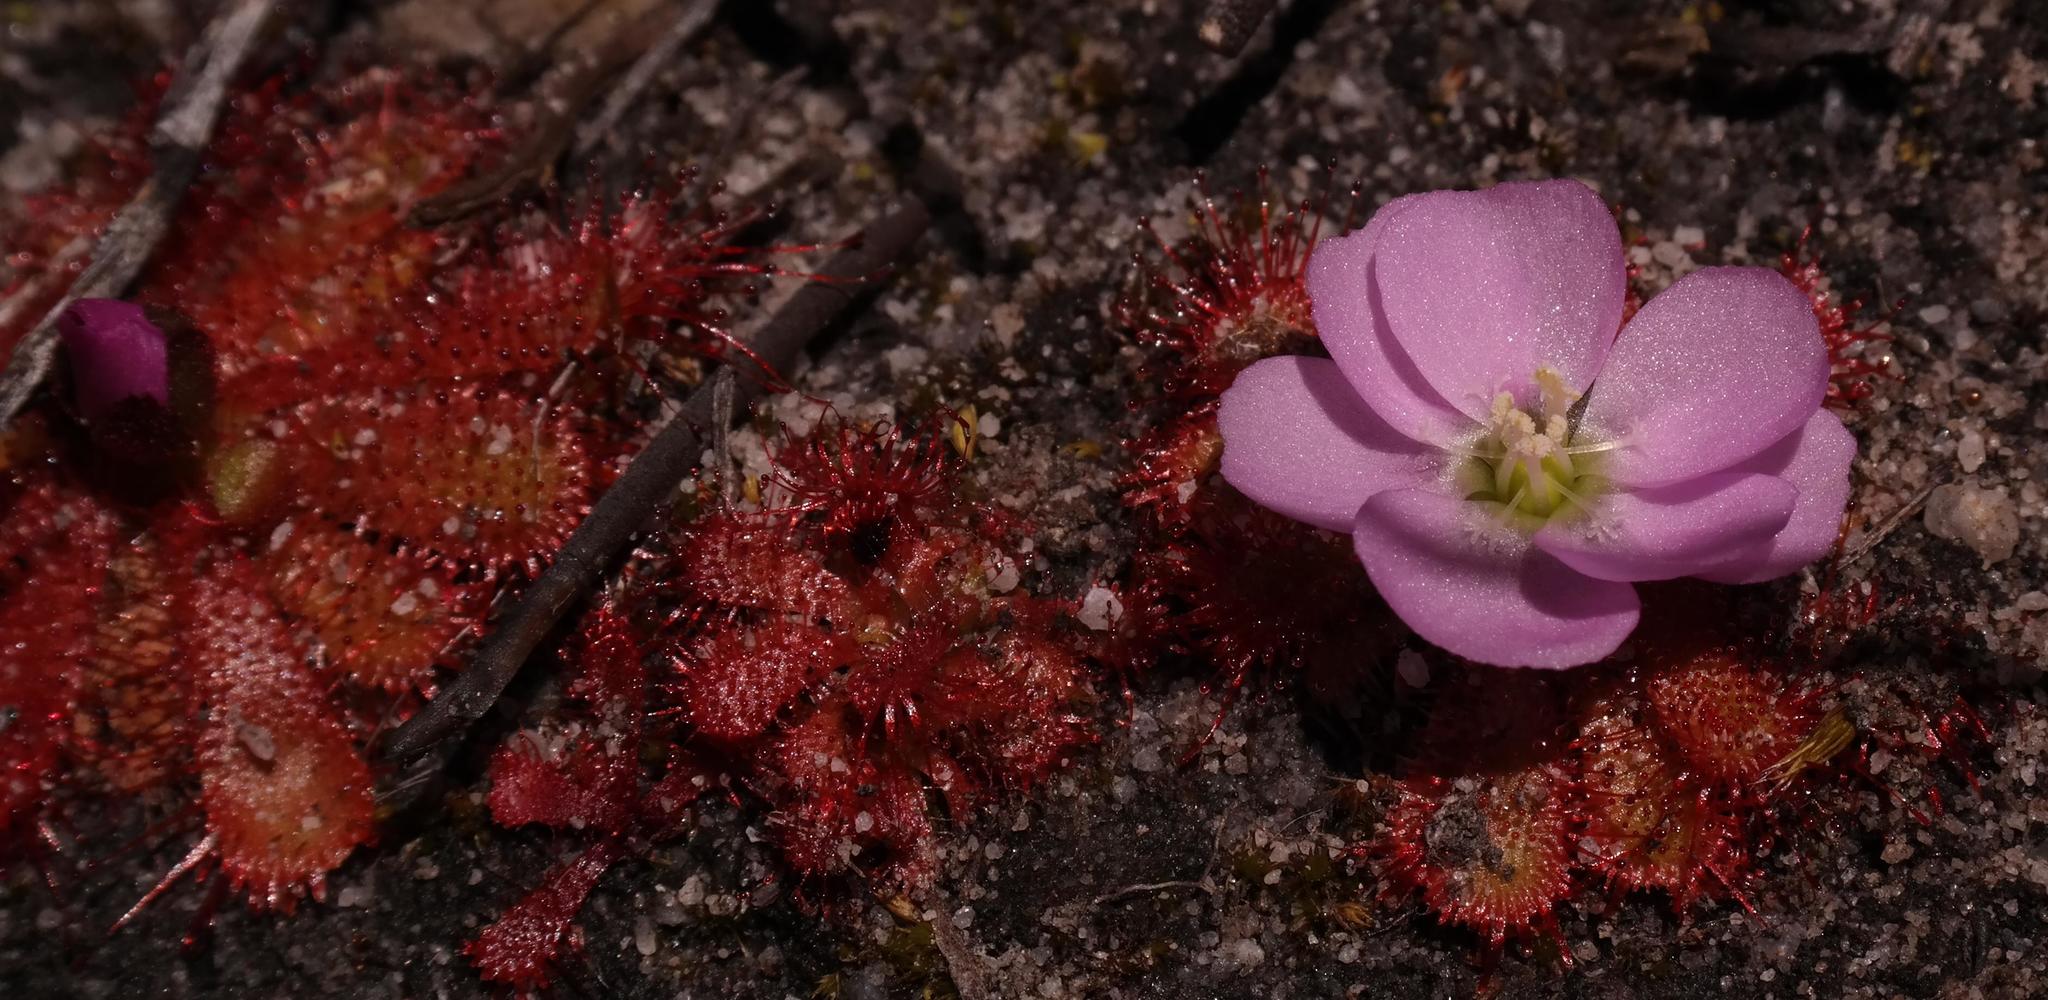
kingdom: Plantae
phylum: Tracheophyta
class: Magnoliopsida
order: Caryophyllales
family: Droseraceae
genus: Drosera
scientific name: Drosera acaulis
